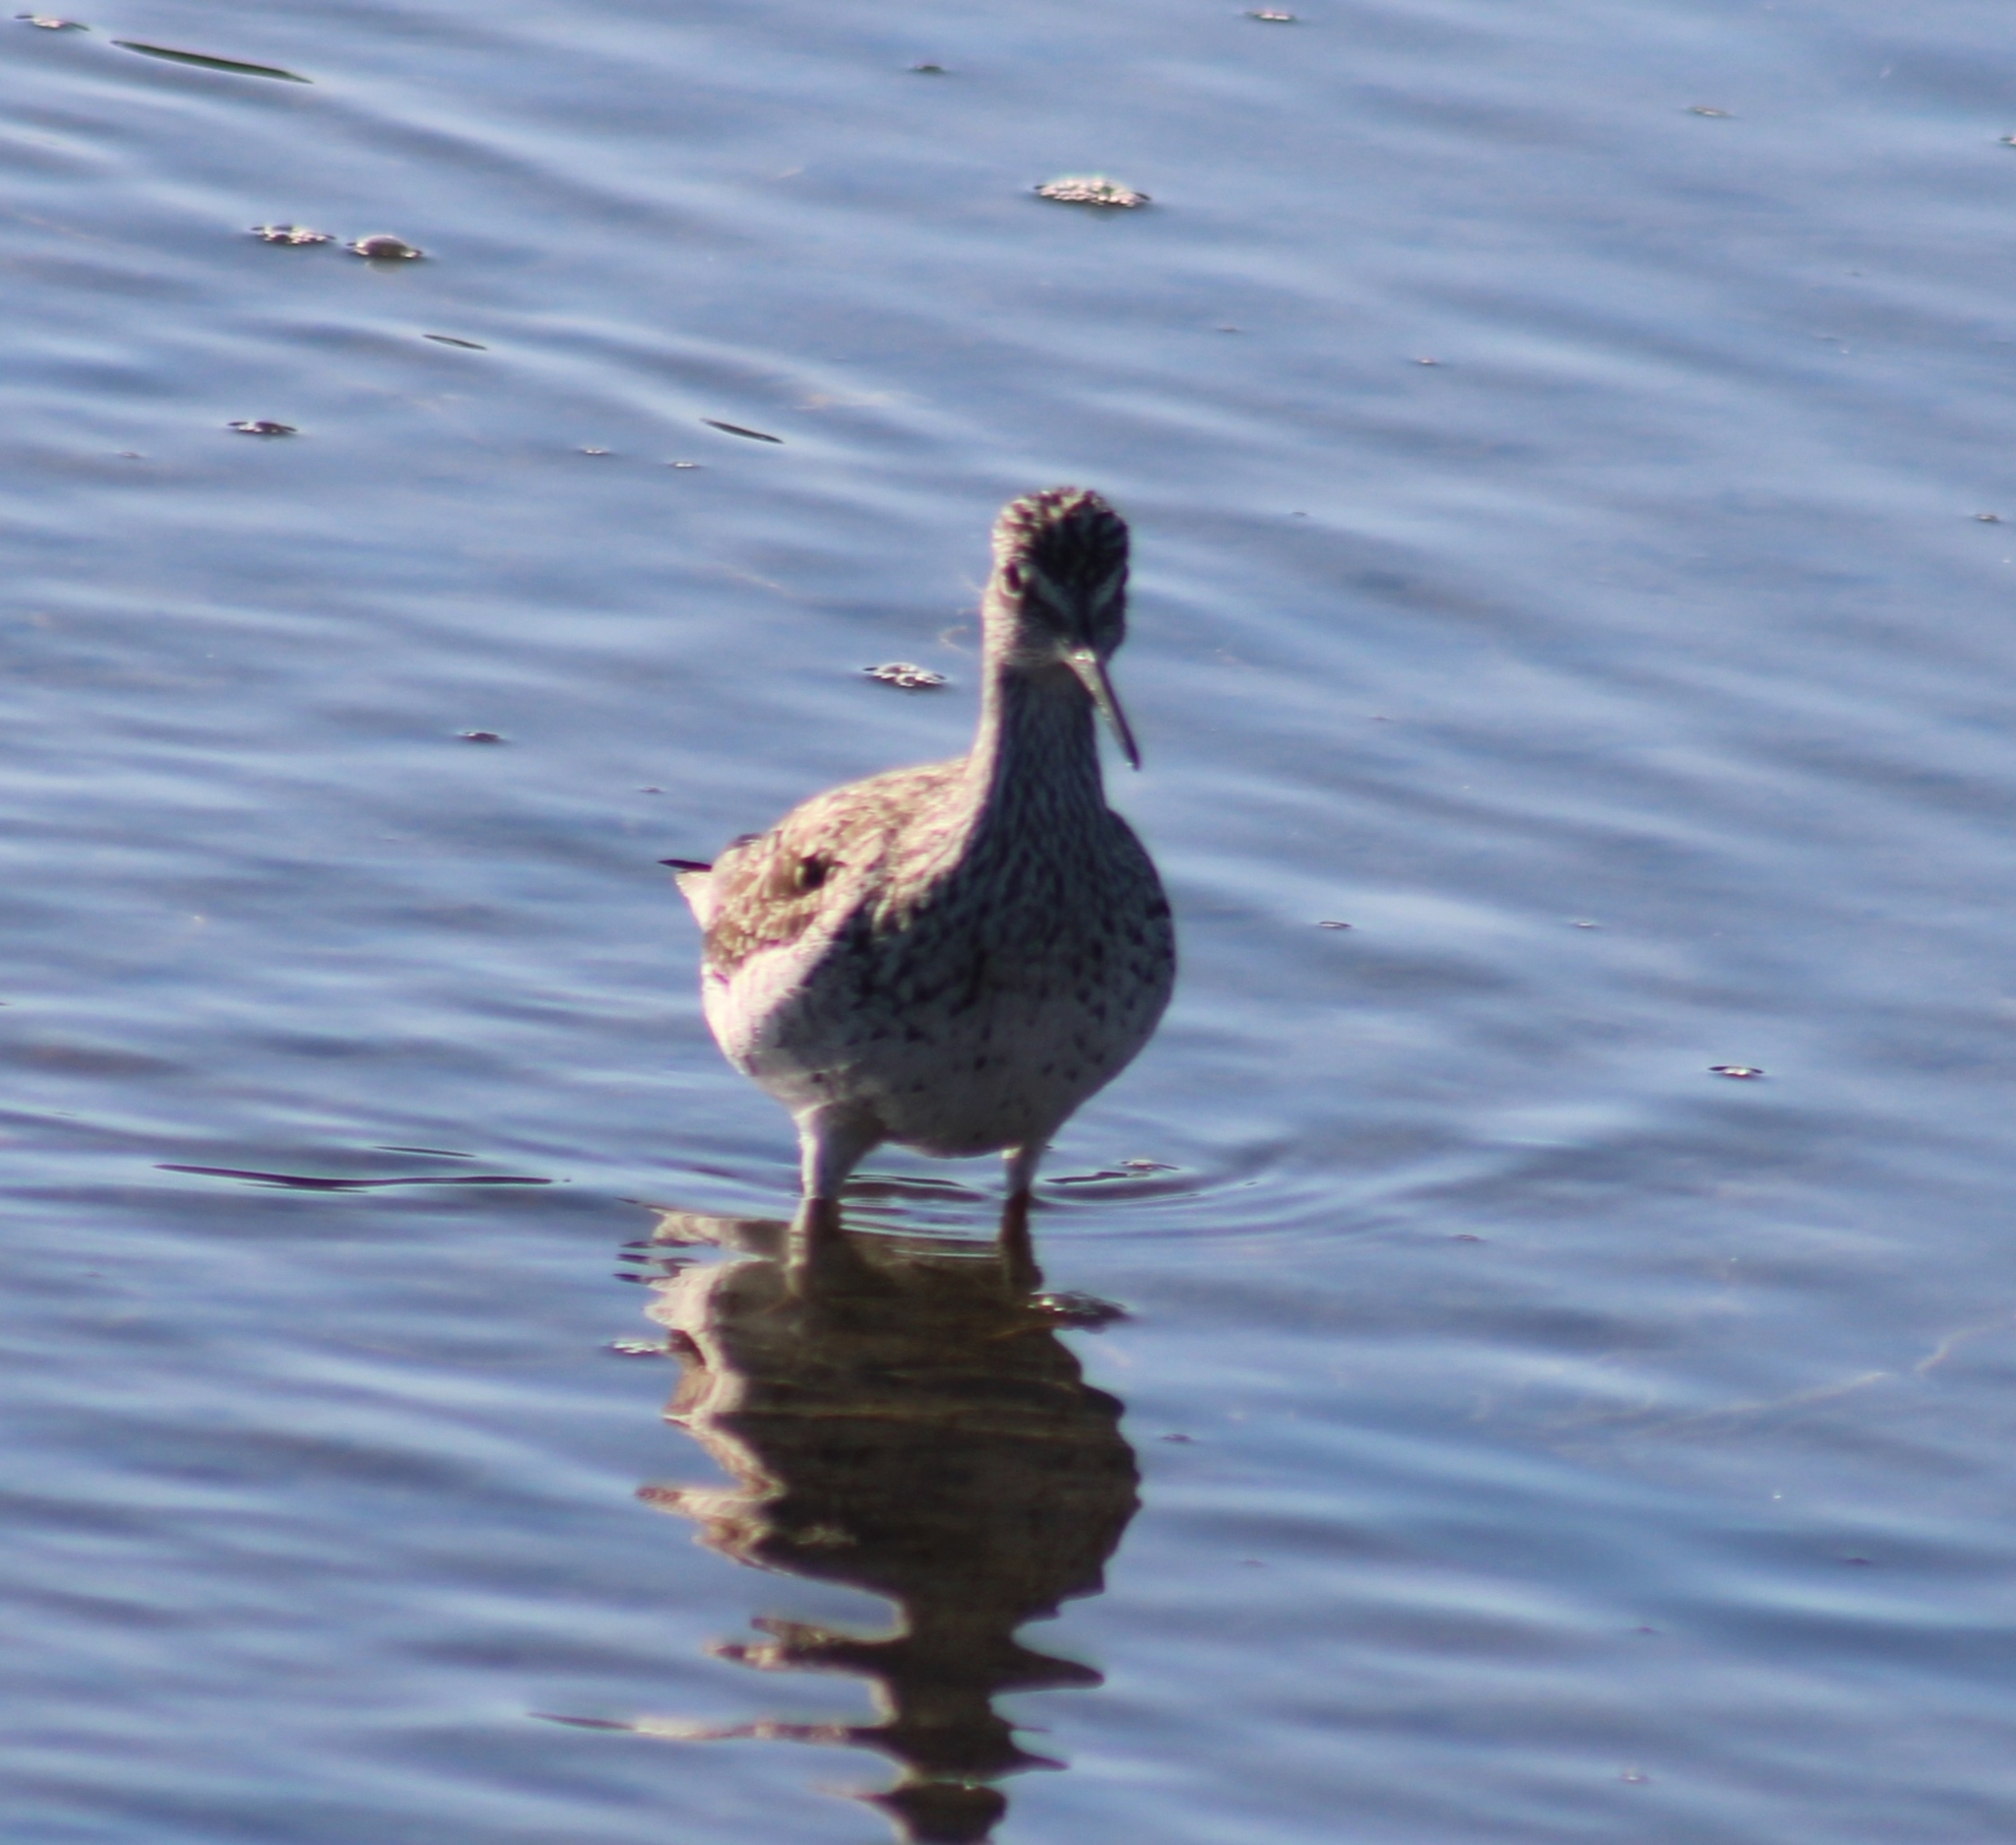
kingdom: Animalia
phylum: Chordata
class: Aves
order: Charadriiformes
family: Scolopacidae
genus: Tringa
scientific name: Tringa melanoleuca
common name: Greater yellowlegs
